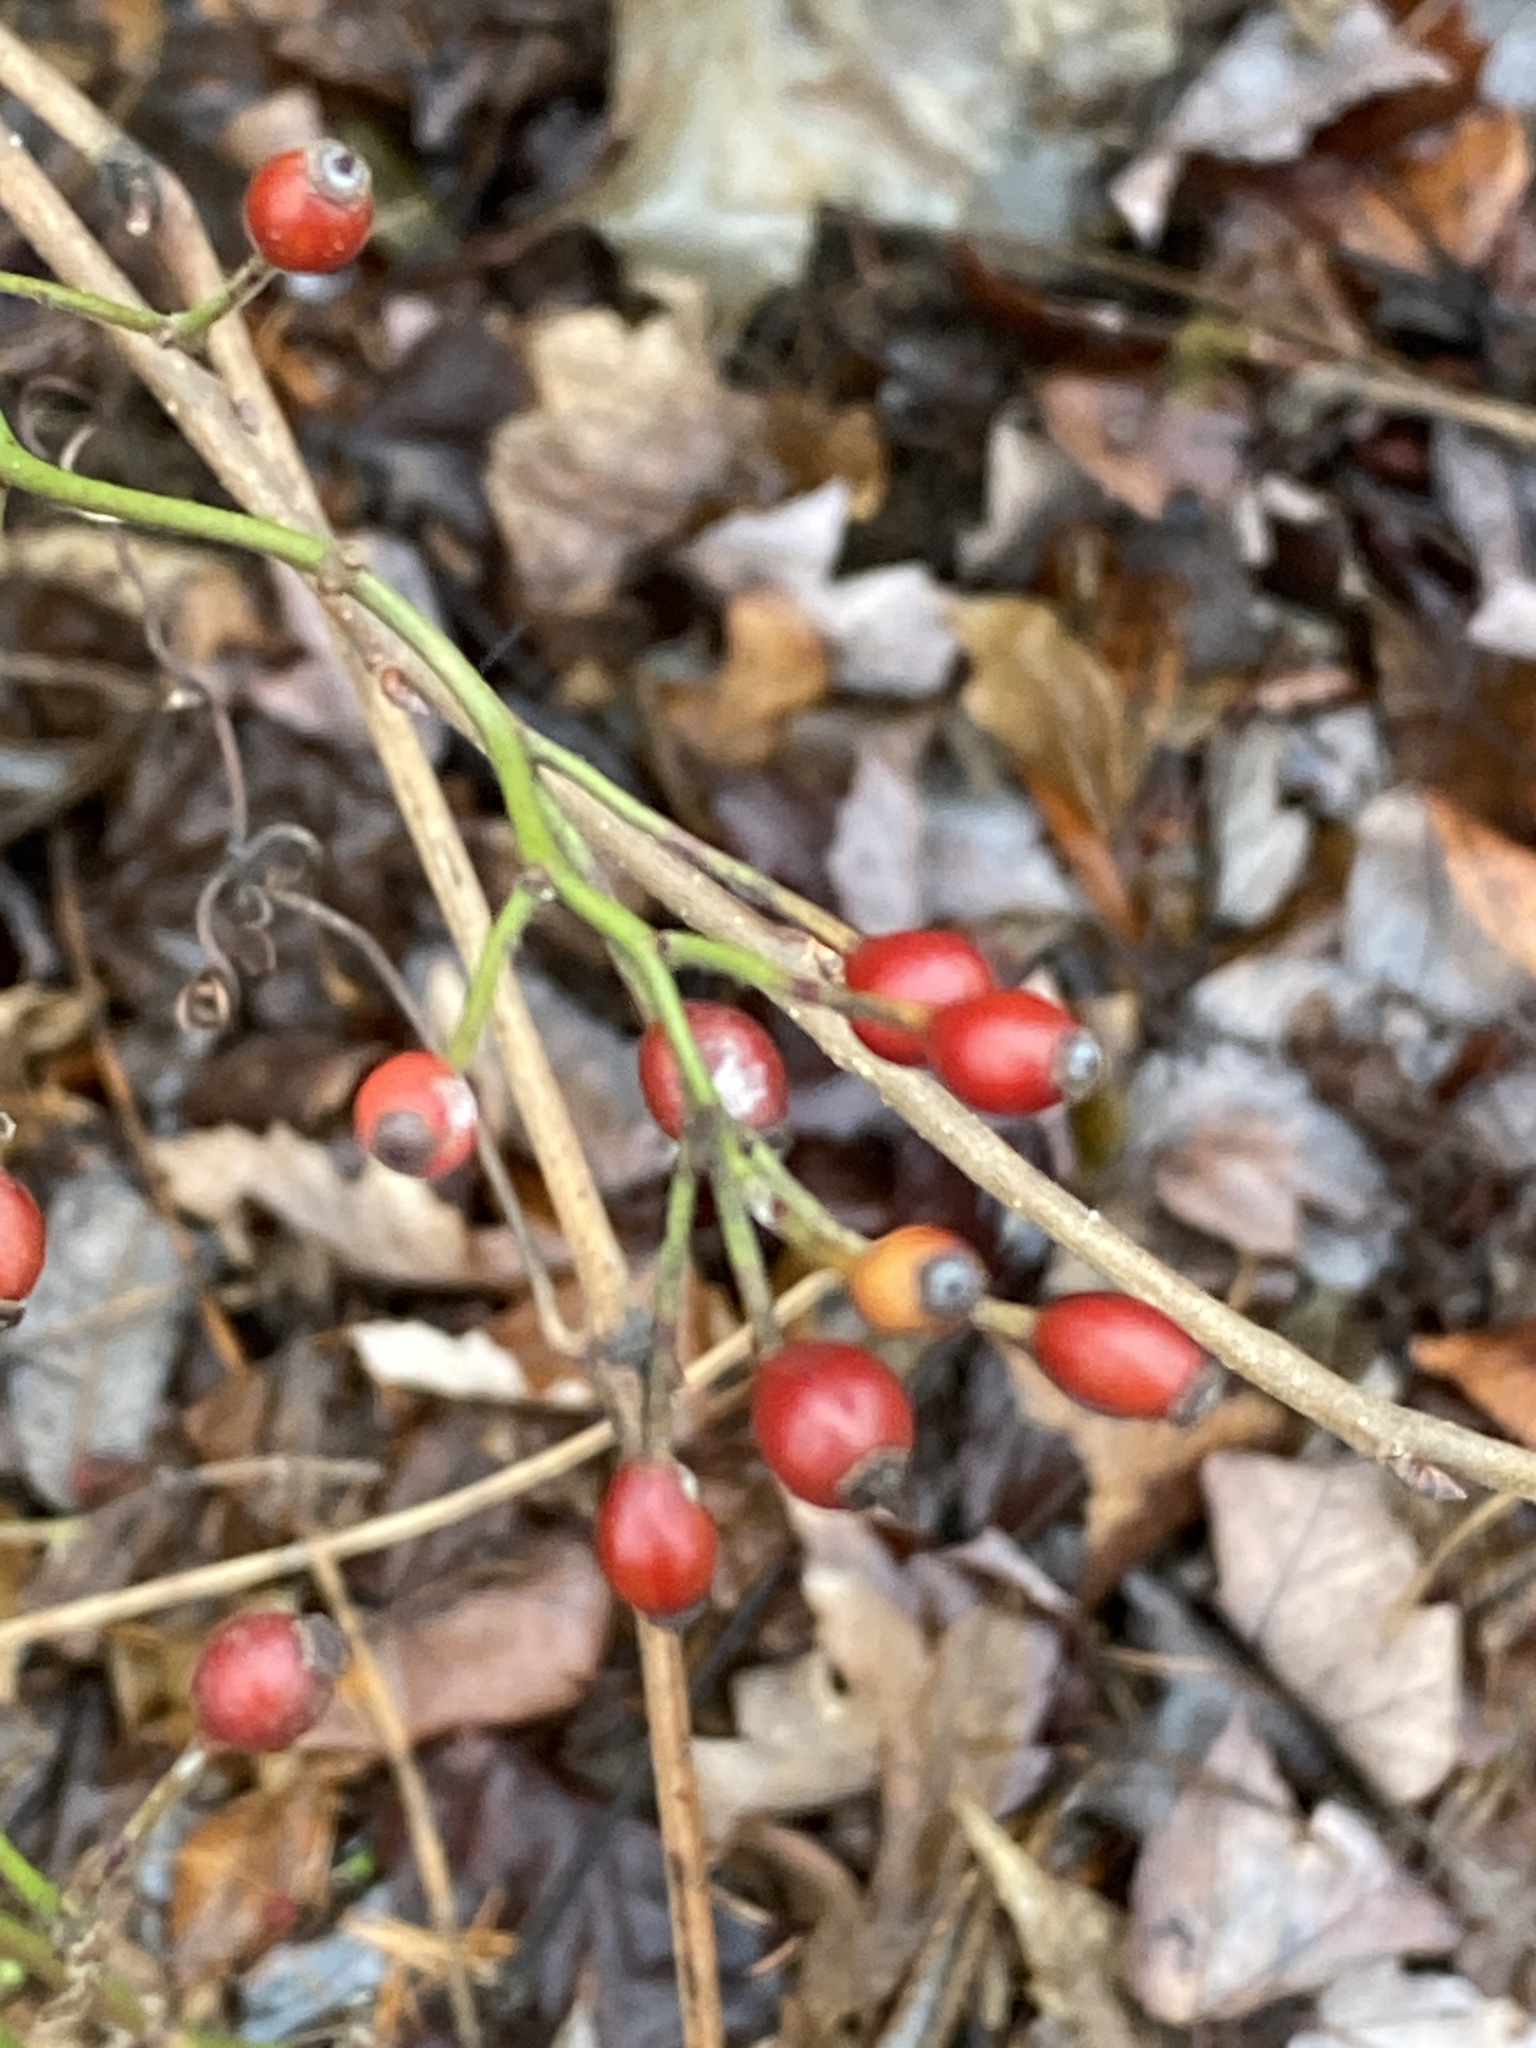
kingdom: Plantae
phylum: Tracheophyta
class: Magnoliopsida
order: Rosales
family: Rosaceae
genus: Rosa
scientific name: Rosa multiflora
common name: Multiflora rose
